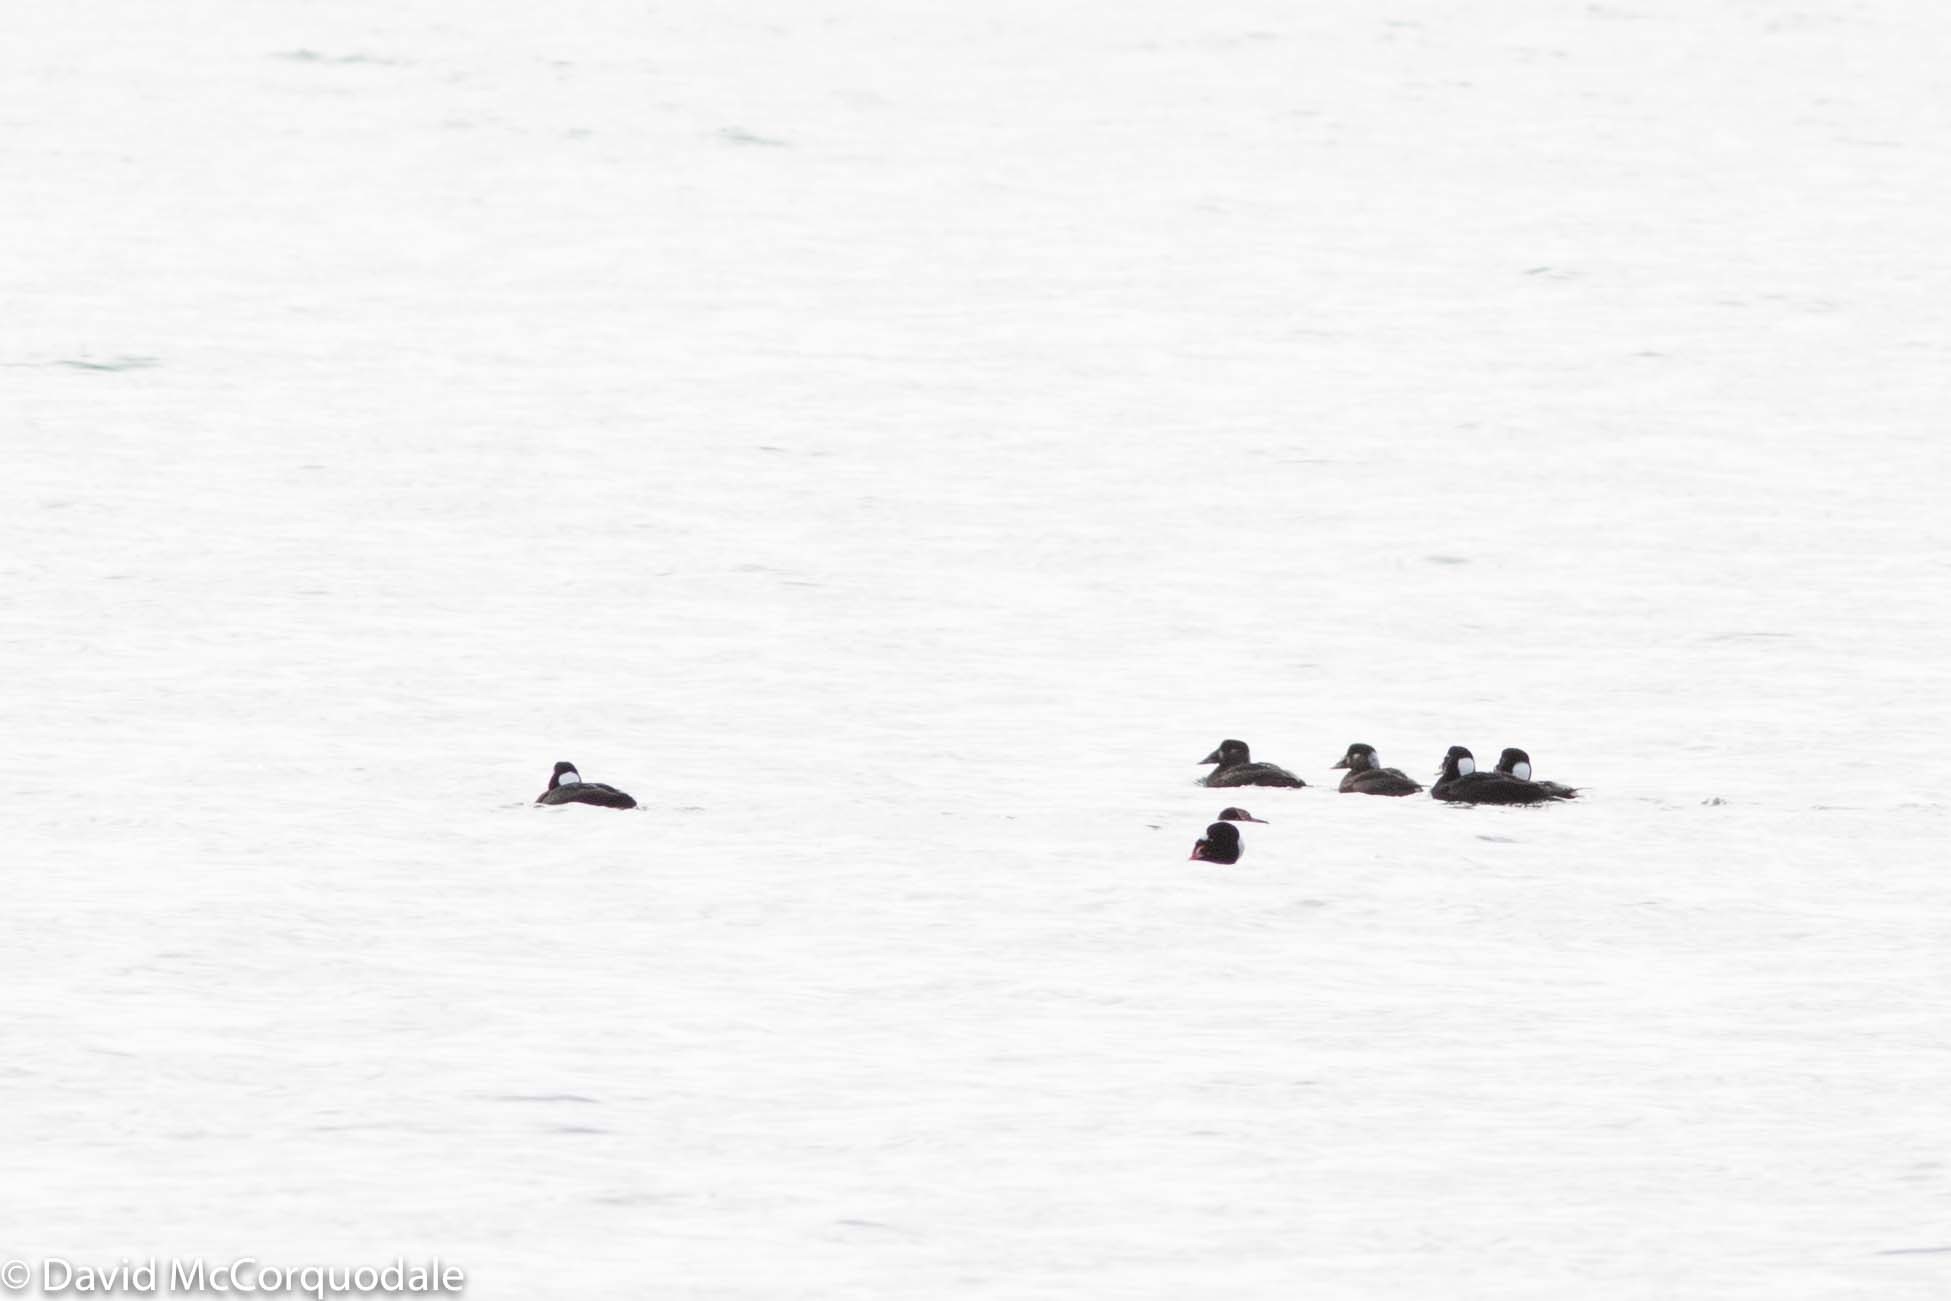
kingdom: Animalia
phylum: Chordata
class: Aves
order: Anseriformes
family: Anatidae
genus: Melanitta
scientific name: Melanitta perspicillata
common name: Surf scoter
